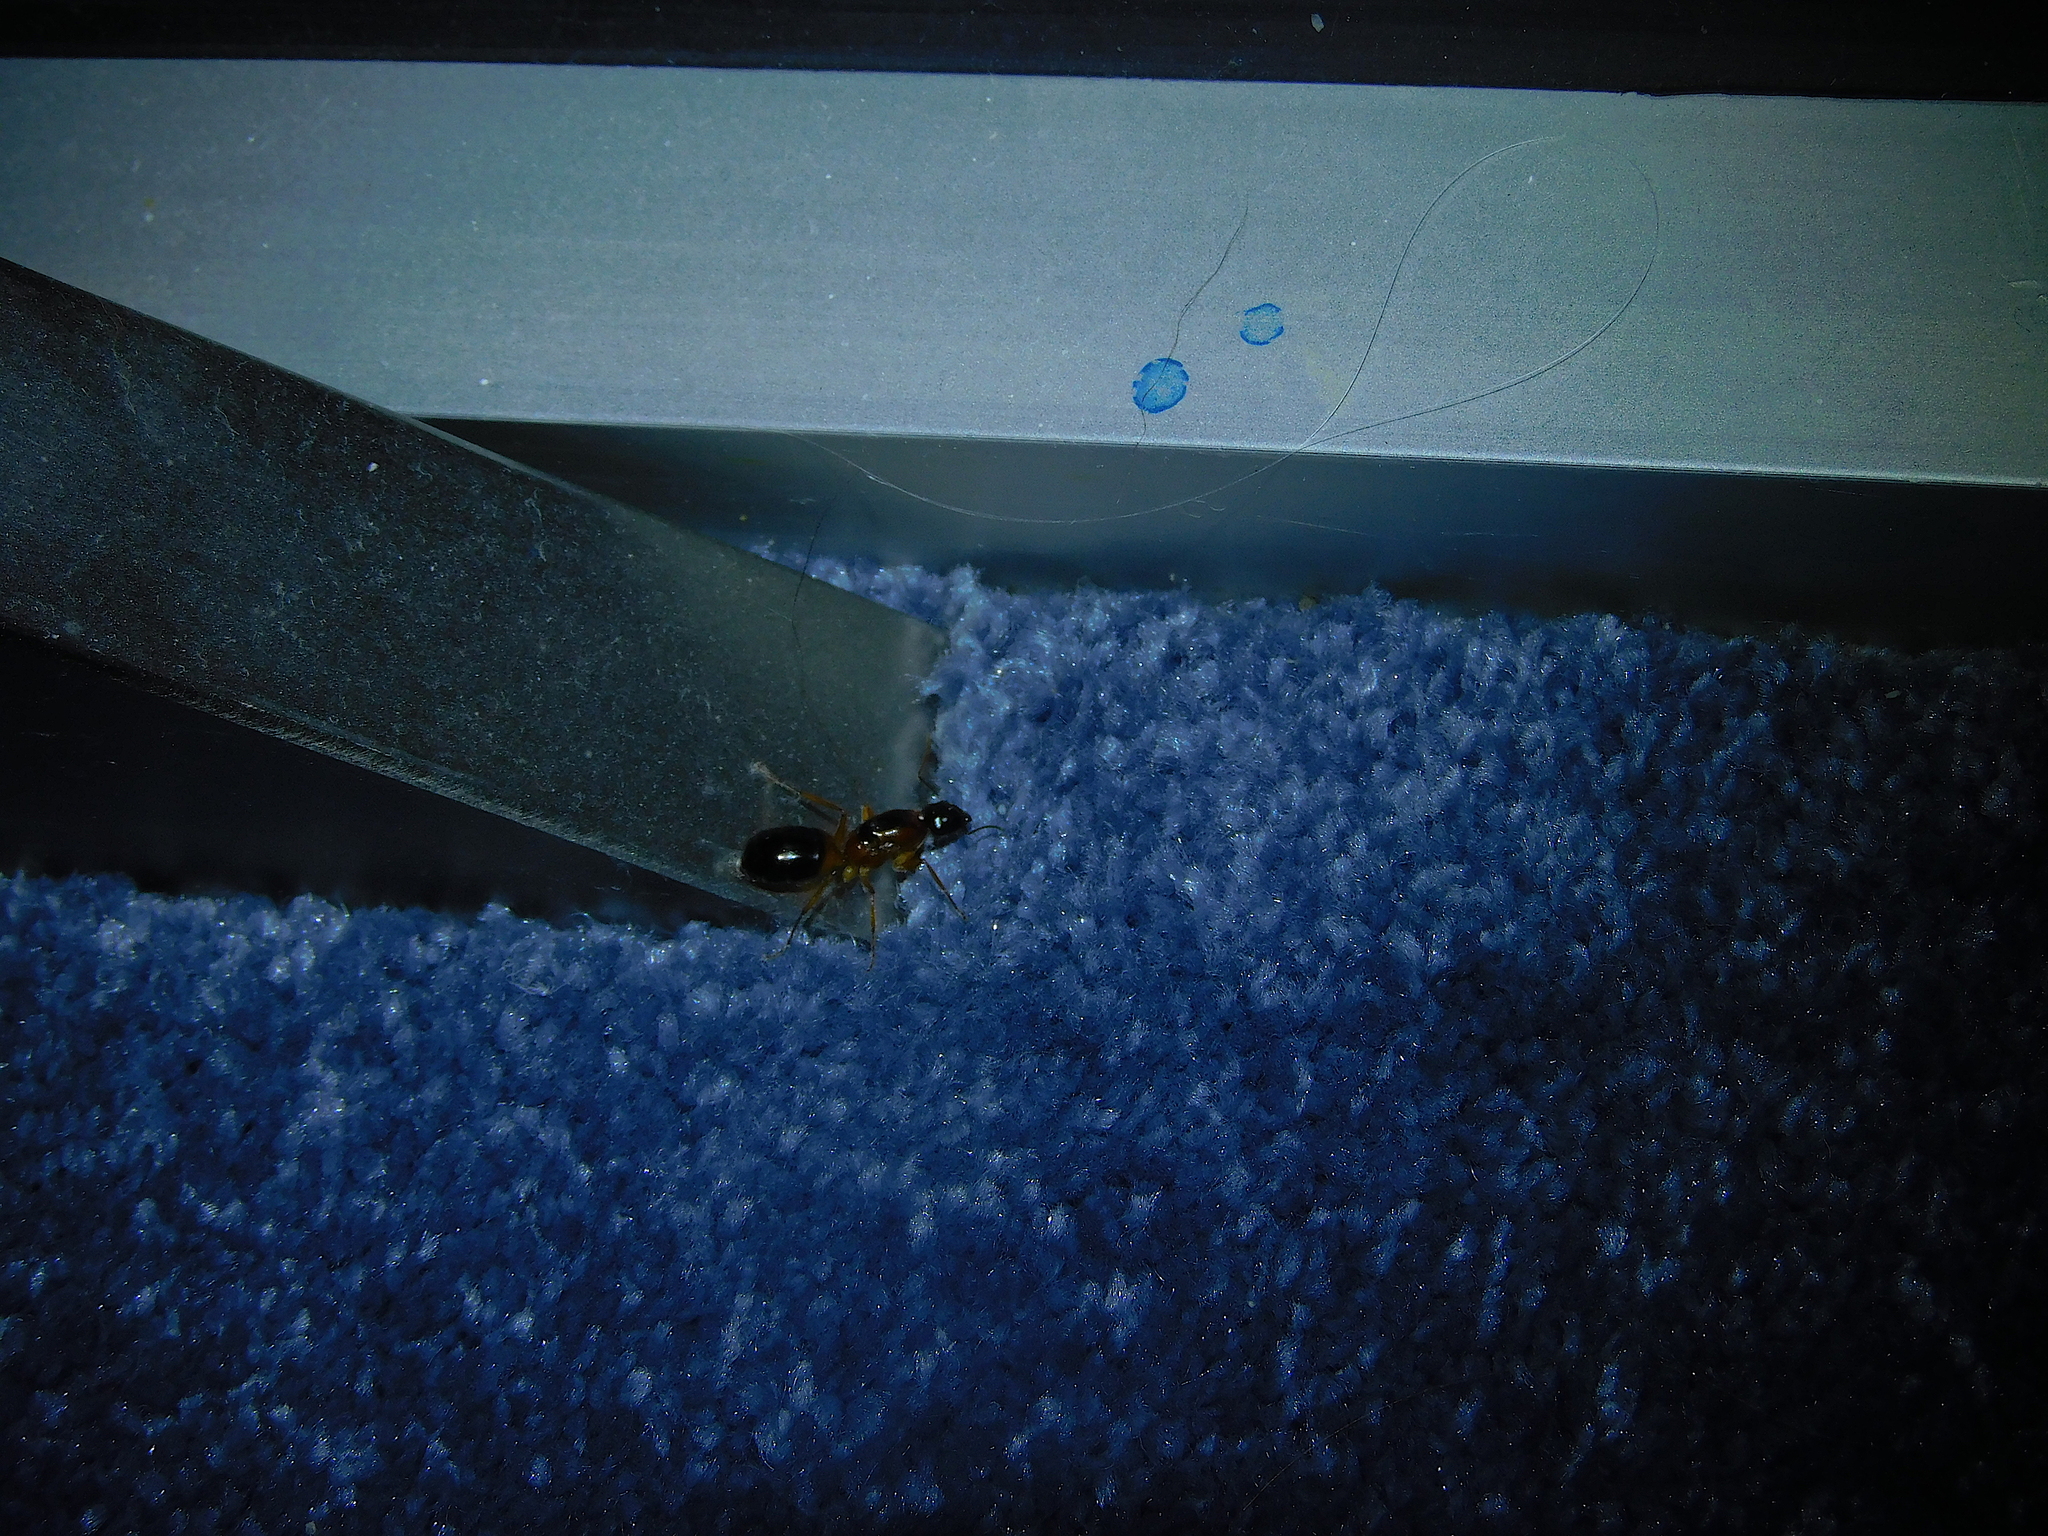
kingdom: Animalia
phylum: Arthropoda
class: Insecta
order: Hymenoptera
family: Formicidae
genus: Camponotus
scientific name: Camponotus consobrinus
